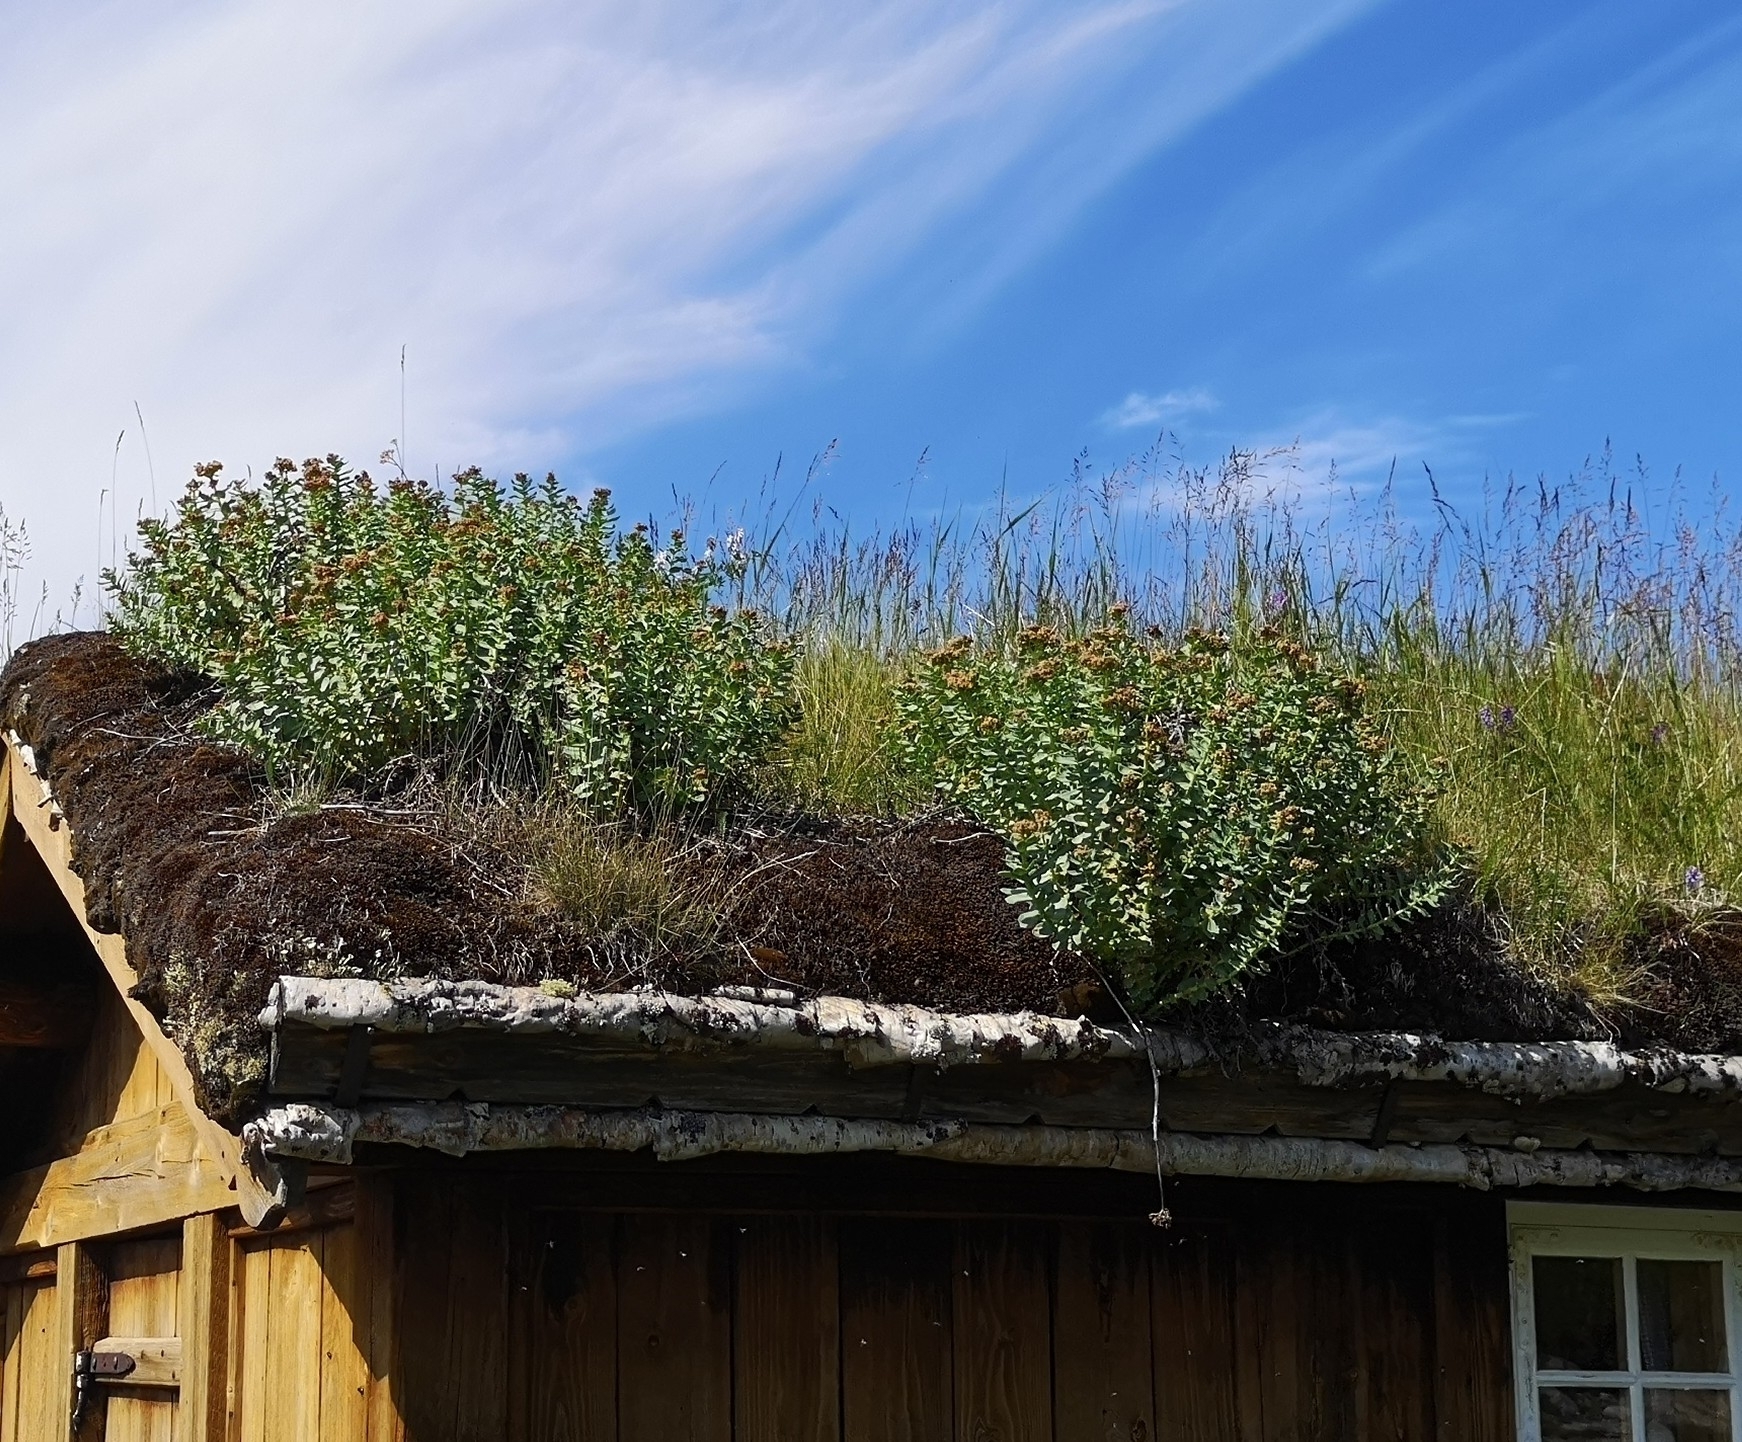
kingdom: Plantae
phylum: Tracheophyta
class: Magnoliopsida
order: Saxifragales
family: Crassulaceae
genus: Rhodiola
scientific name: Rhodiola rosea
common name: Roseroot
